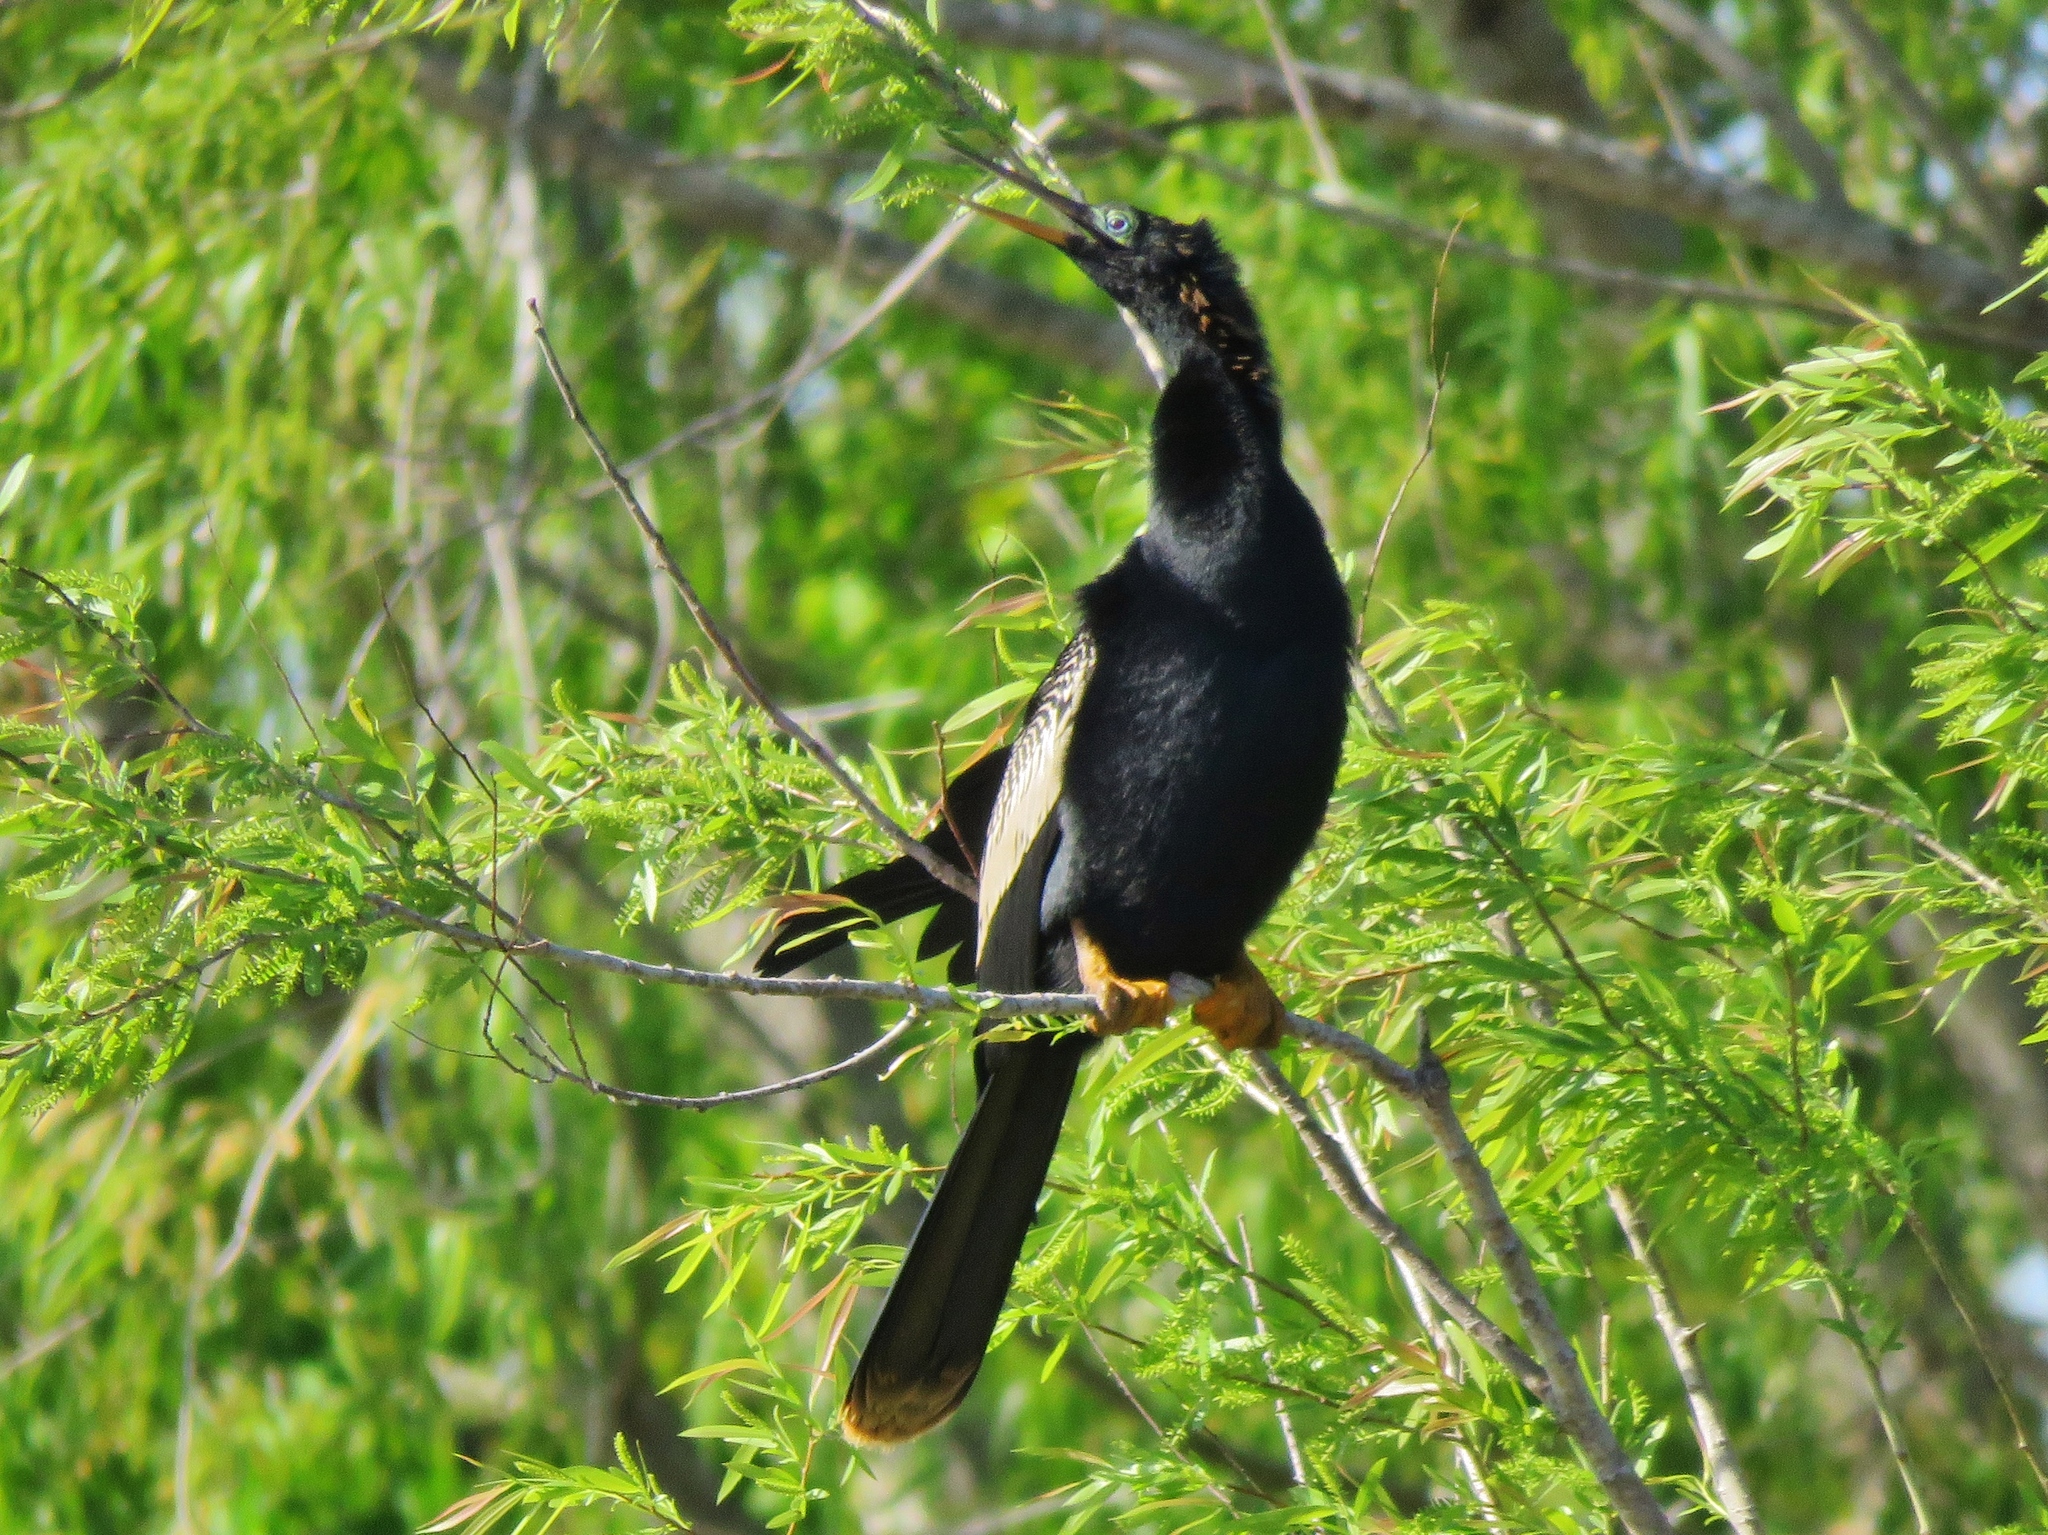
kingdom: Animalia
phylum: Chordata
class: Aves
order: Suliformes
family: Anhingidae
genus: Anhinga
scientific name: Anhinga anhinga
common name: Anhinga
